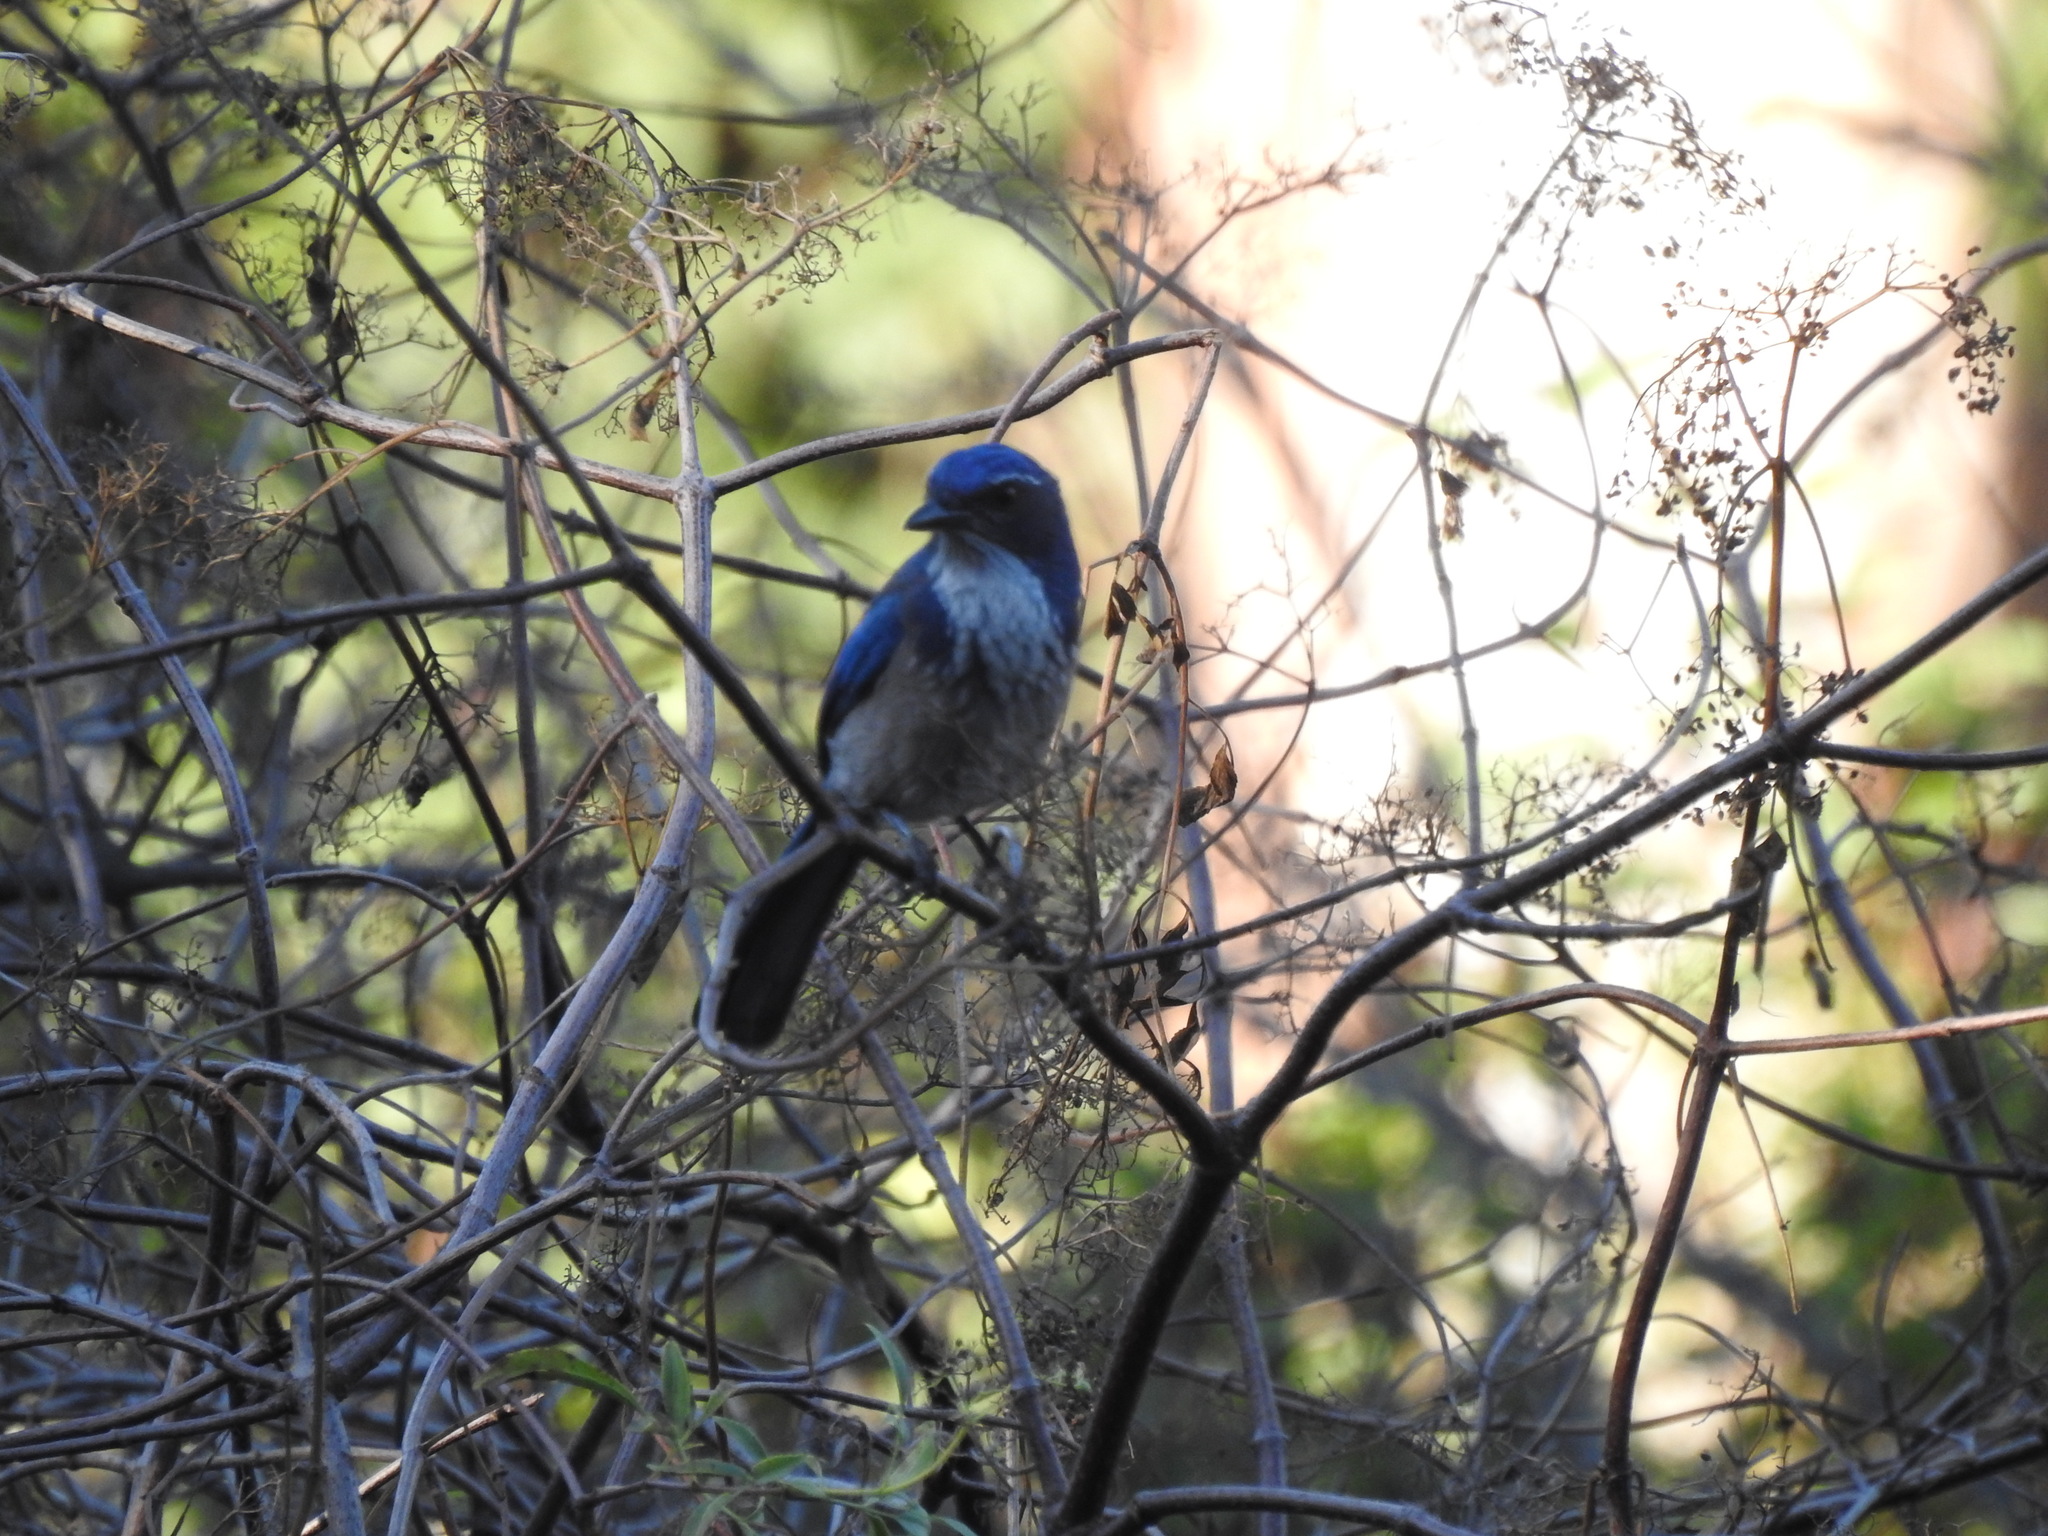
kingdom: Animalia
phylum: Chordata
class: Aves
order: Passeriformes
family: Corvidae
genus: Aphelocoma
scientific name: Aphelocoma californica
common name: California scrub-jay
